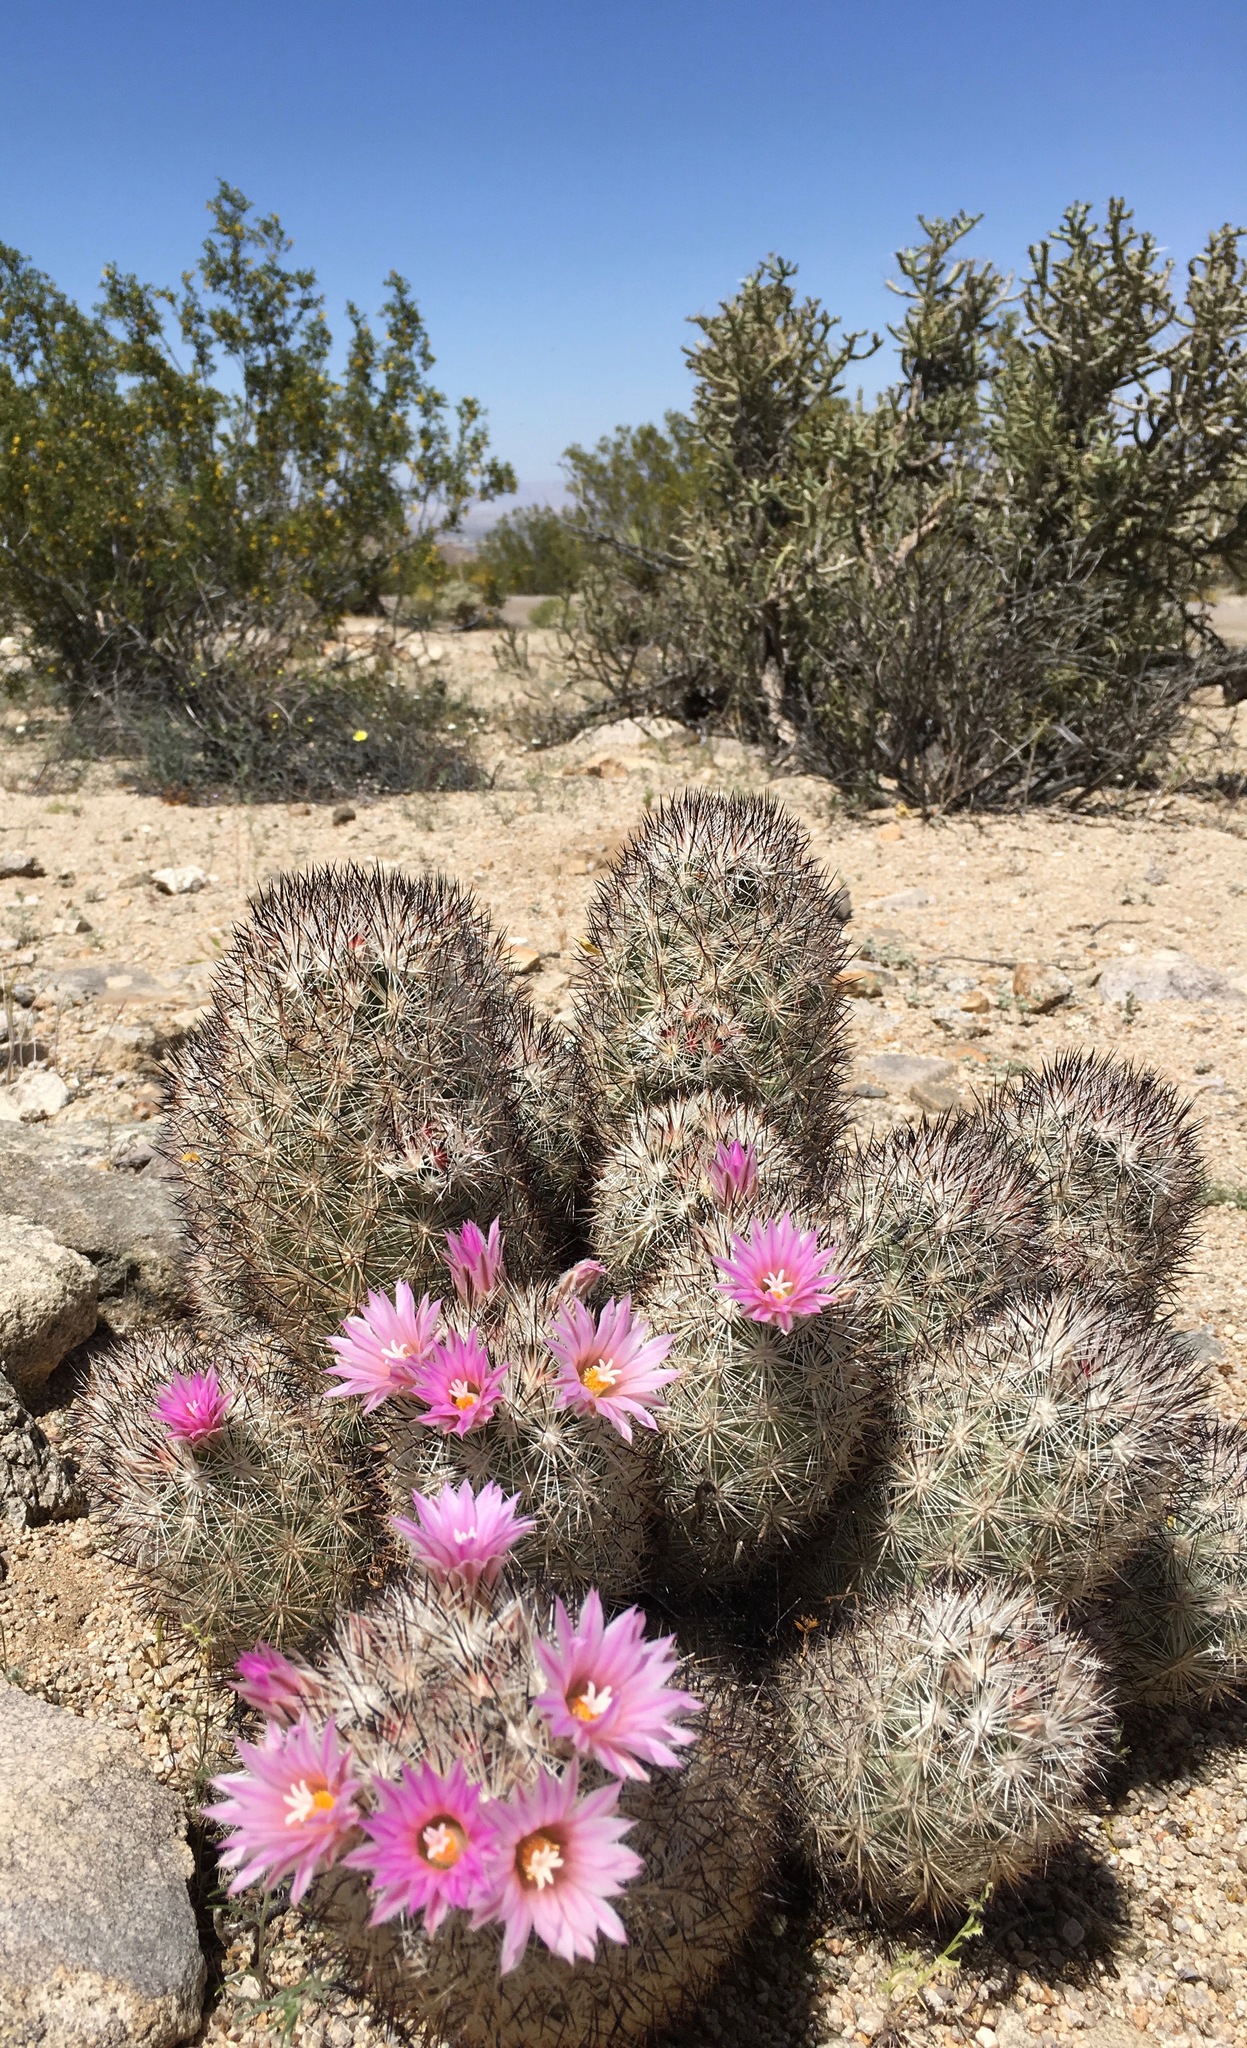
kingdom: Plantae
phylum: Tracheophyta
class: Magnoliopsida
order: Caryophyllales
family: Cactaceae
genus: Pelecyphora
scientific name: Pelecyphora alversonii
